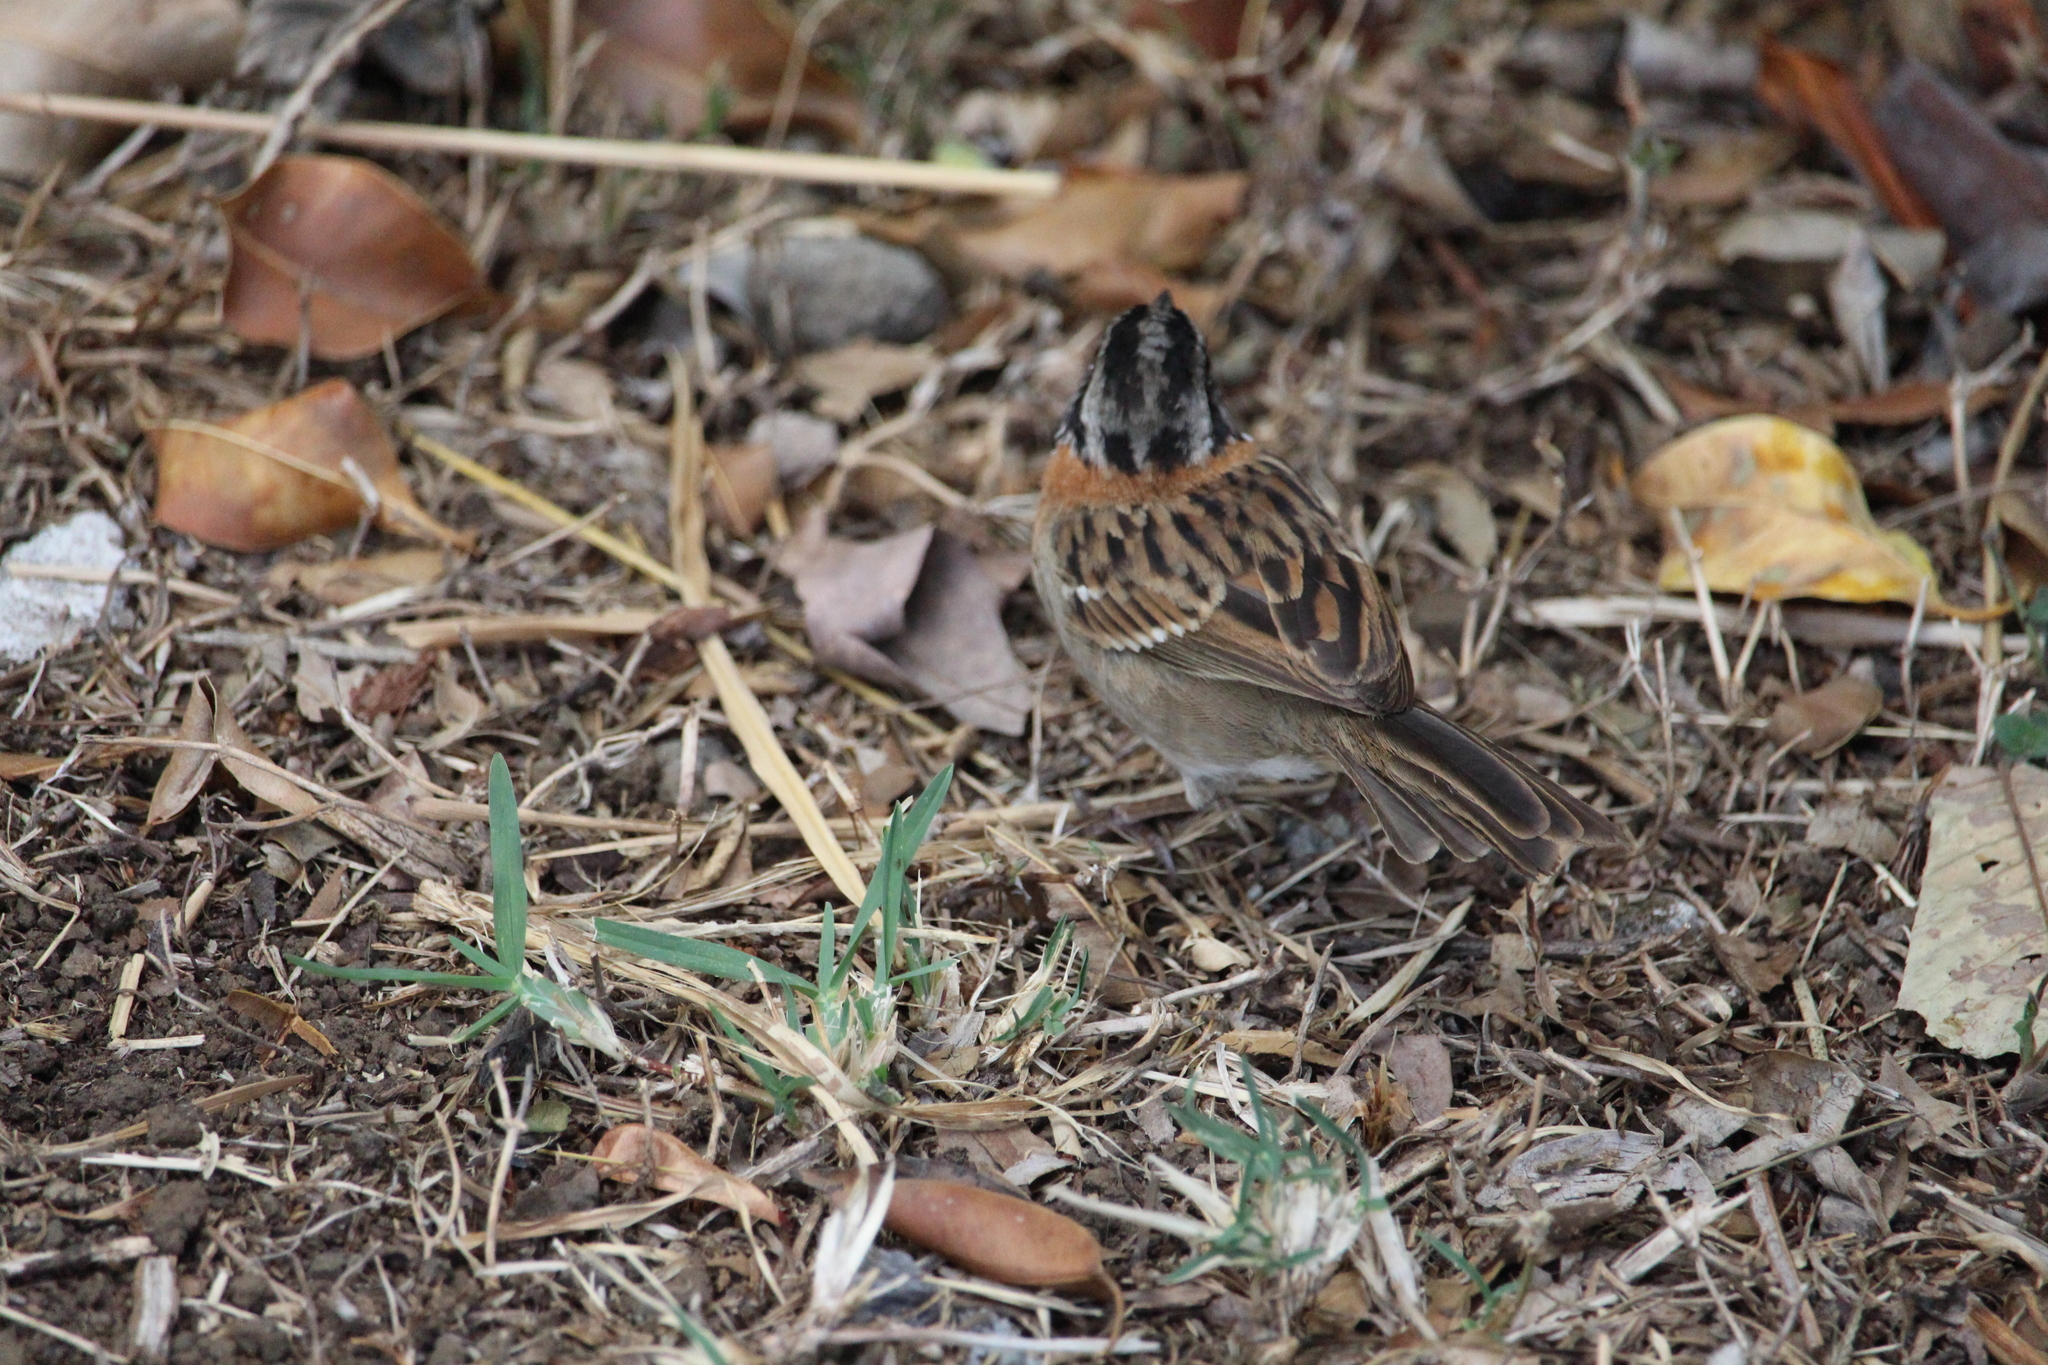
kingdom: Animalia
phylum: Chordata
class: Aves
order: Passeriformes
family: Passerellidae
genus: Zonotrichia
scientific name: Zonotrichia capensis
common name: Rufous-collared sparrow
